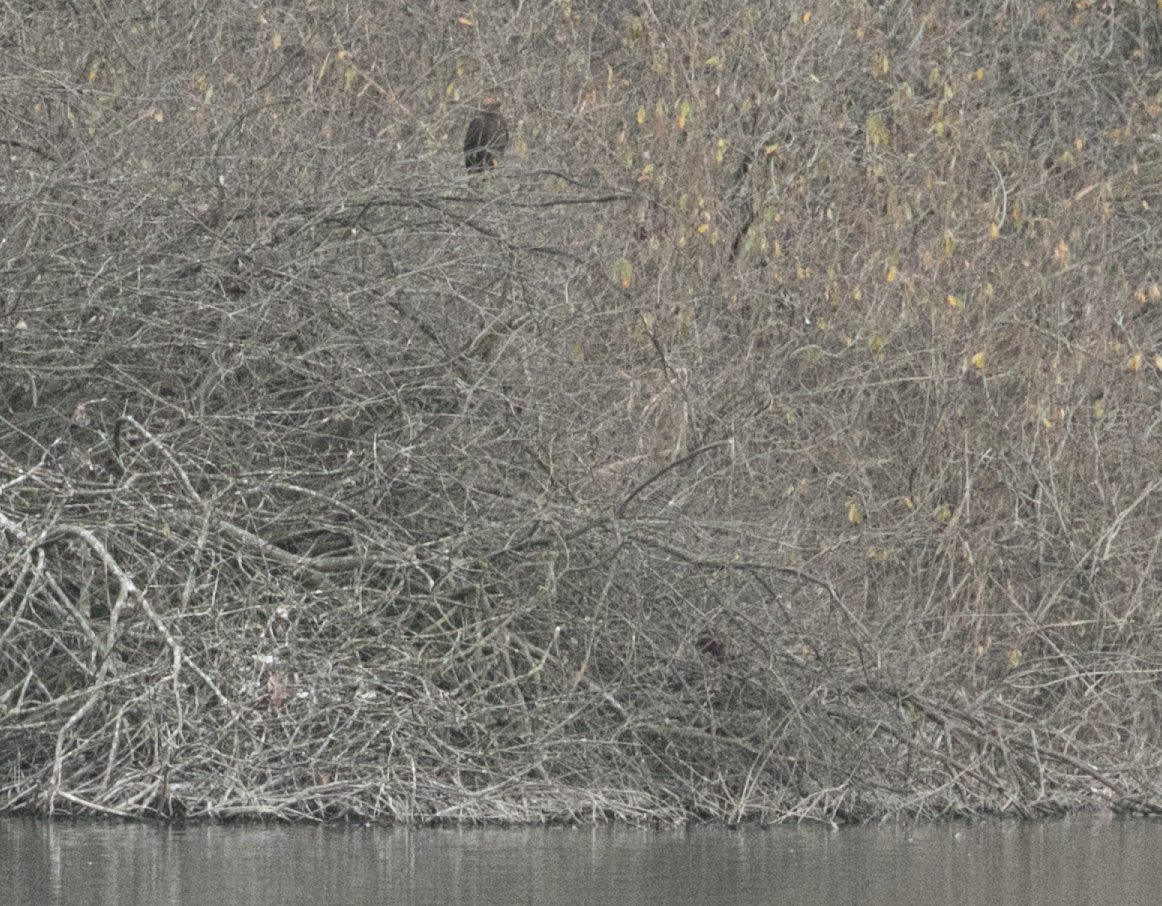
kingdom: Animalia
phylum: Chordata
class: Aves
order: Accipitriformes
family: Accipitridae
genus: Circus
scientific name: Circus aeruginosus
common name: Western marsh harrier
